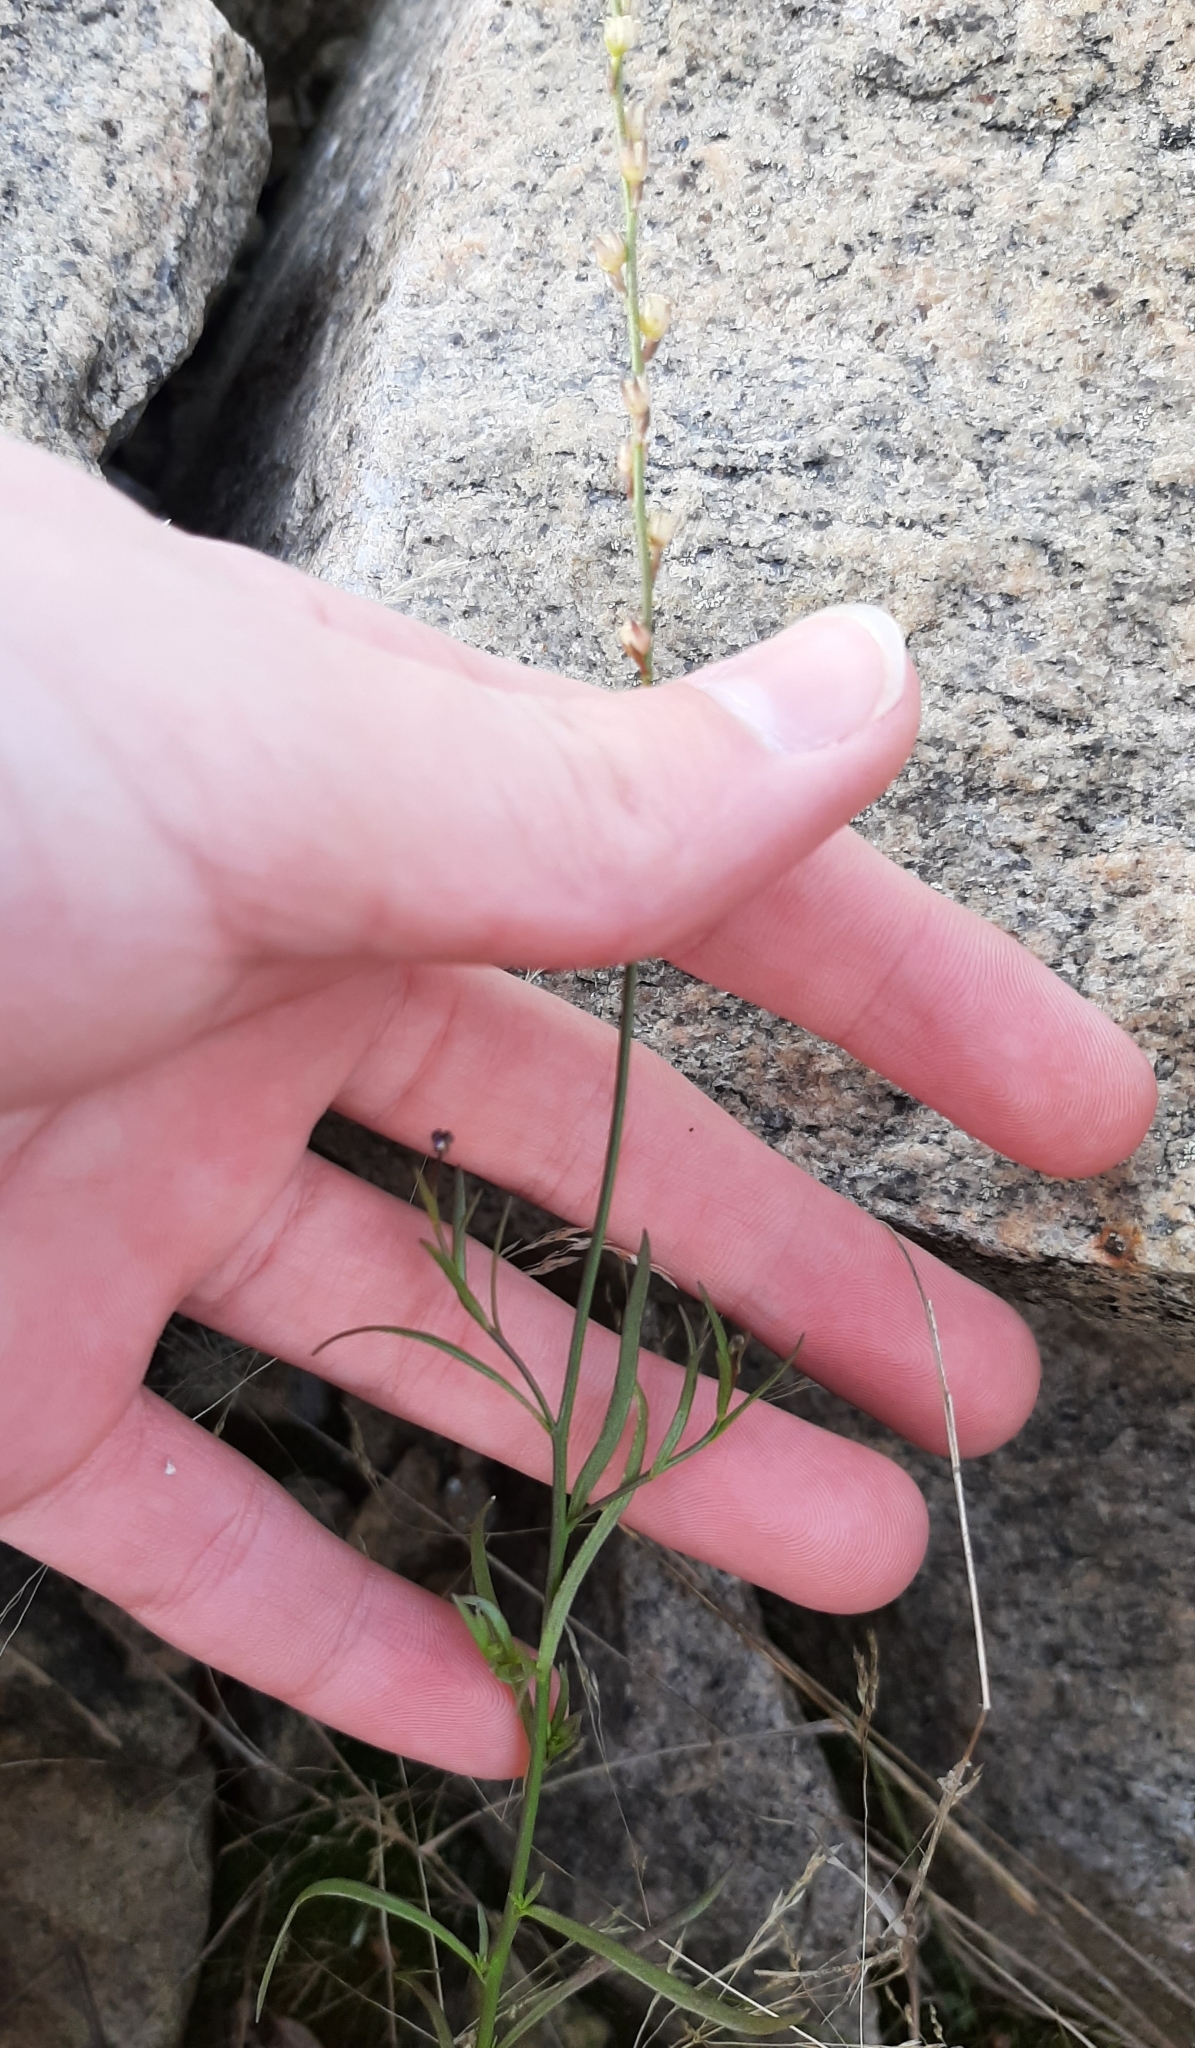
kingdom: Plantae
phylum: Tracheophyta
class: Magnoliopsida
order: Lamiales
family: Plantaginaceae
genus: Nuttallanthus
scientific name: Nuttallanthus canadensis
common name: Blue toadflax
